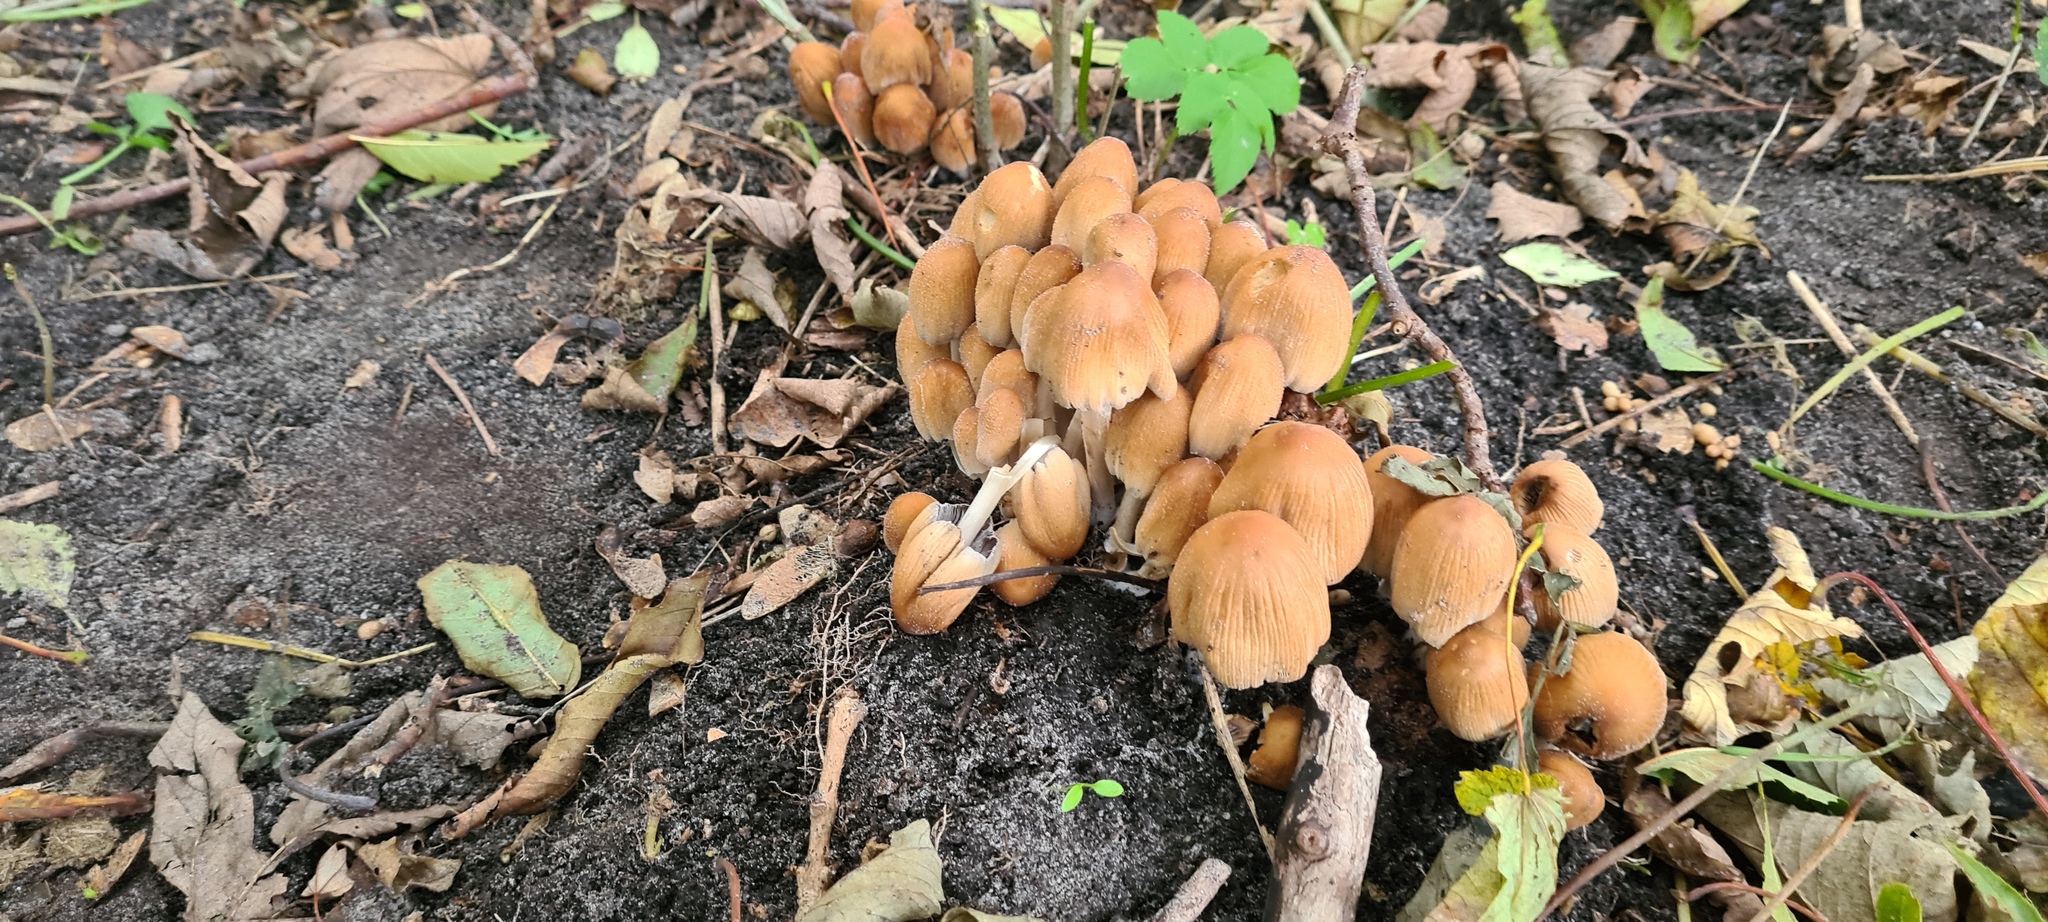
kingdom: Fungi
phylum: Basidiomycota
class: Agaricomycetes
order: Agaricales
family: Psathyrellaceae
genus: Coprinellus
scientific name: Coprinellus micaceus
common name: Glistening ink-cap
